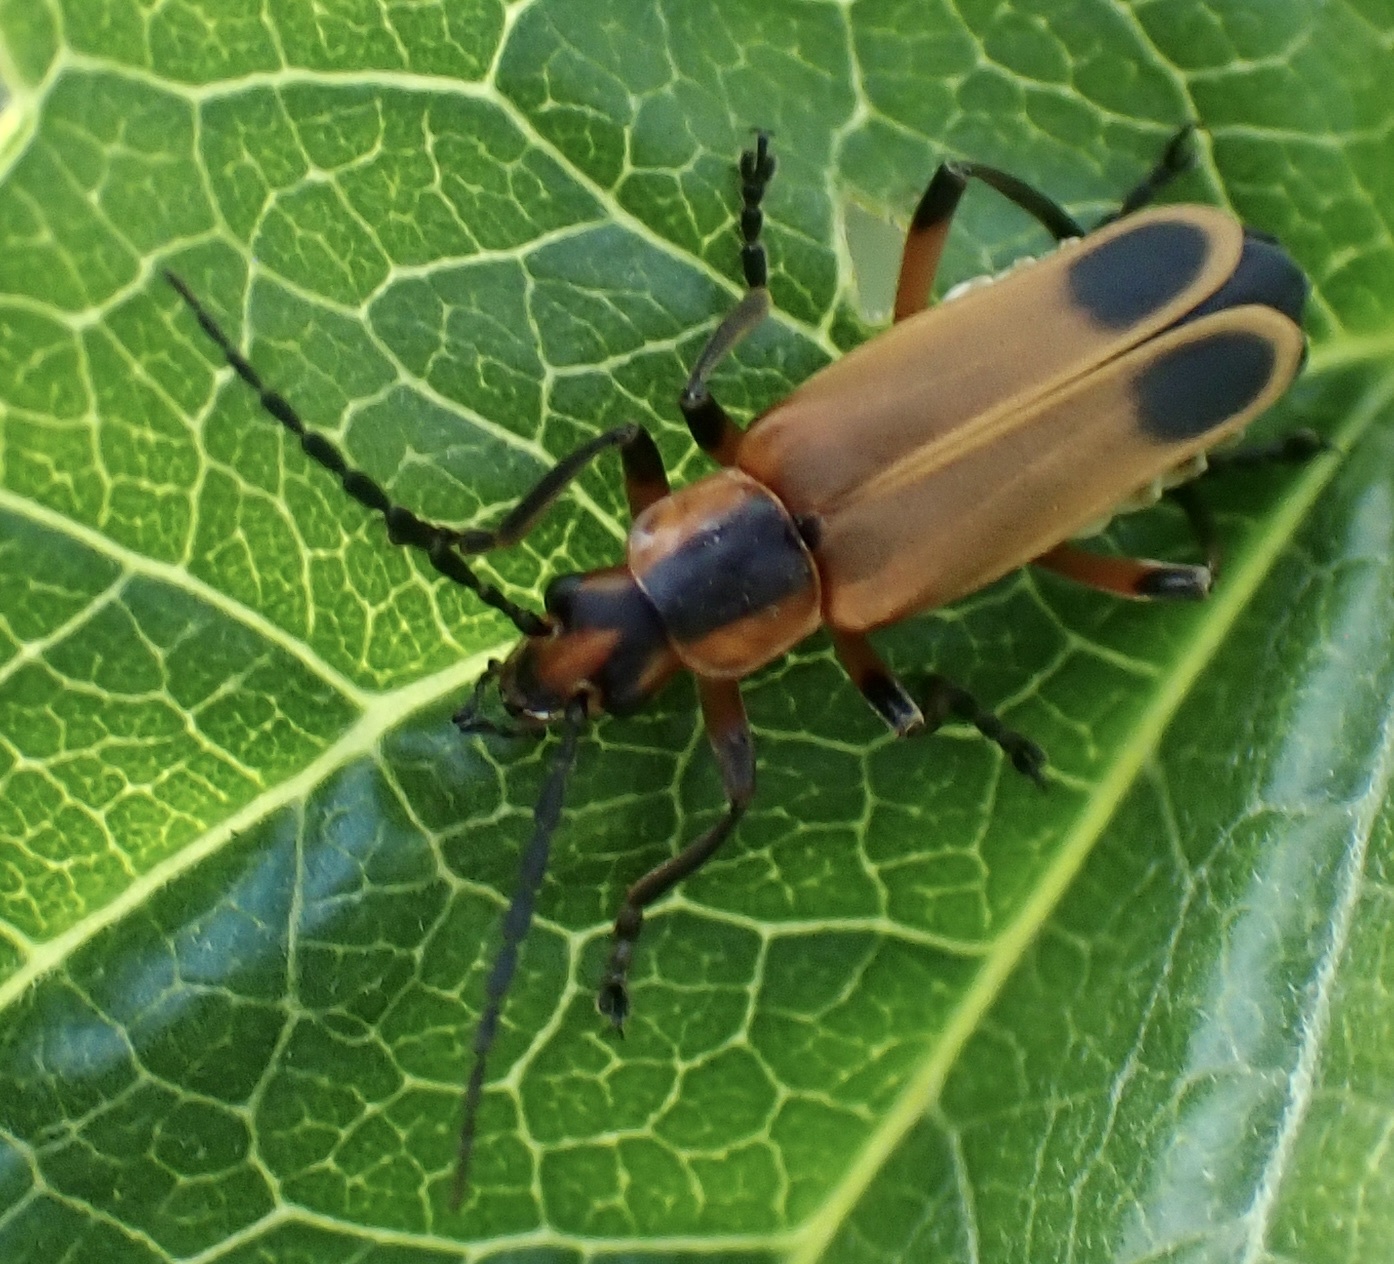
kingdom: Animalia
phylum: Arthropoda
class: Insecta
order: Coleoptera
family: Cantharidae
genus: Chauliognathus
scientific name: Chauliognathus marginatus
